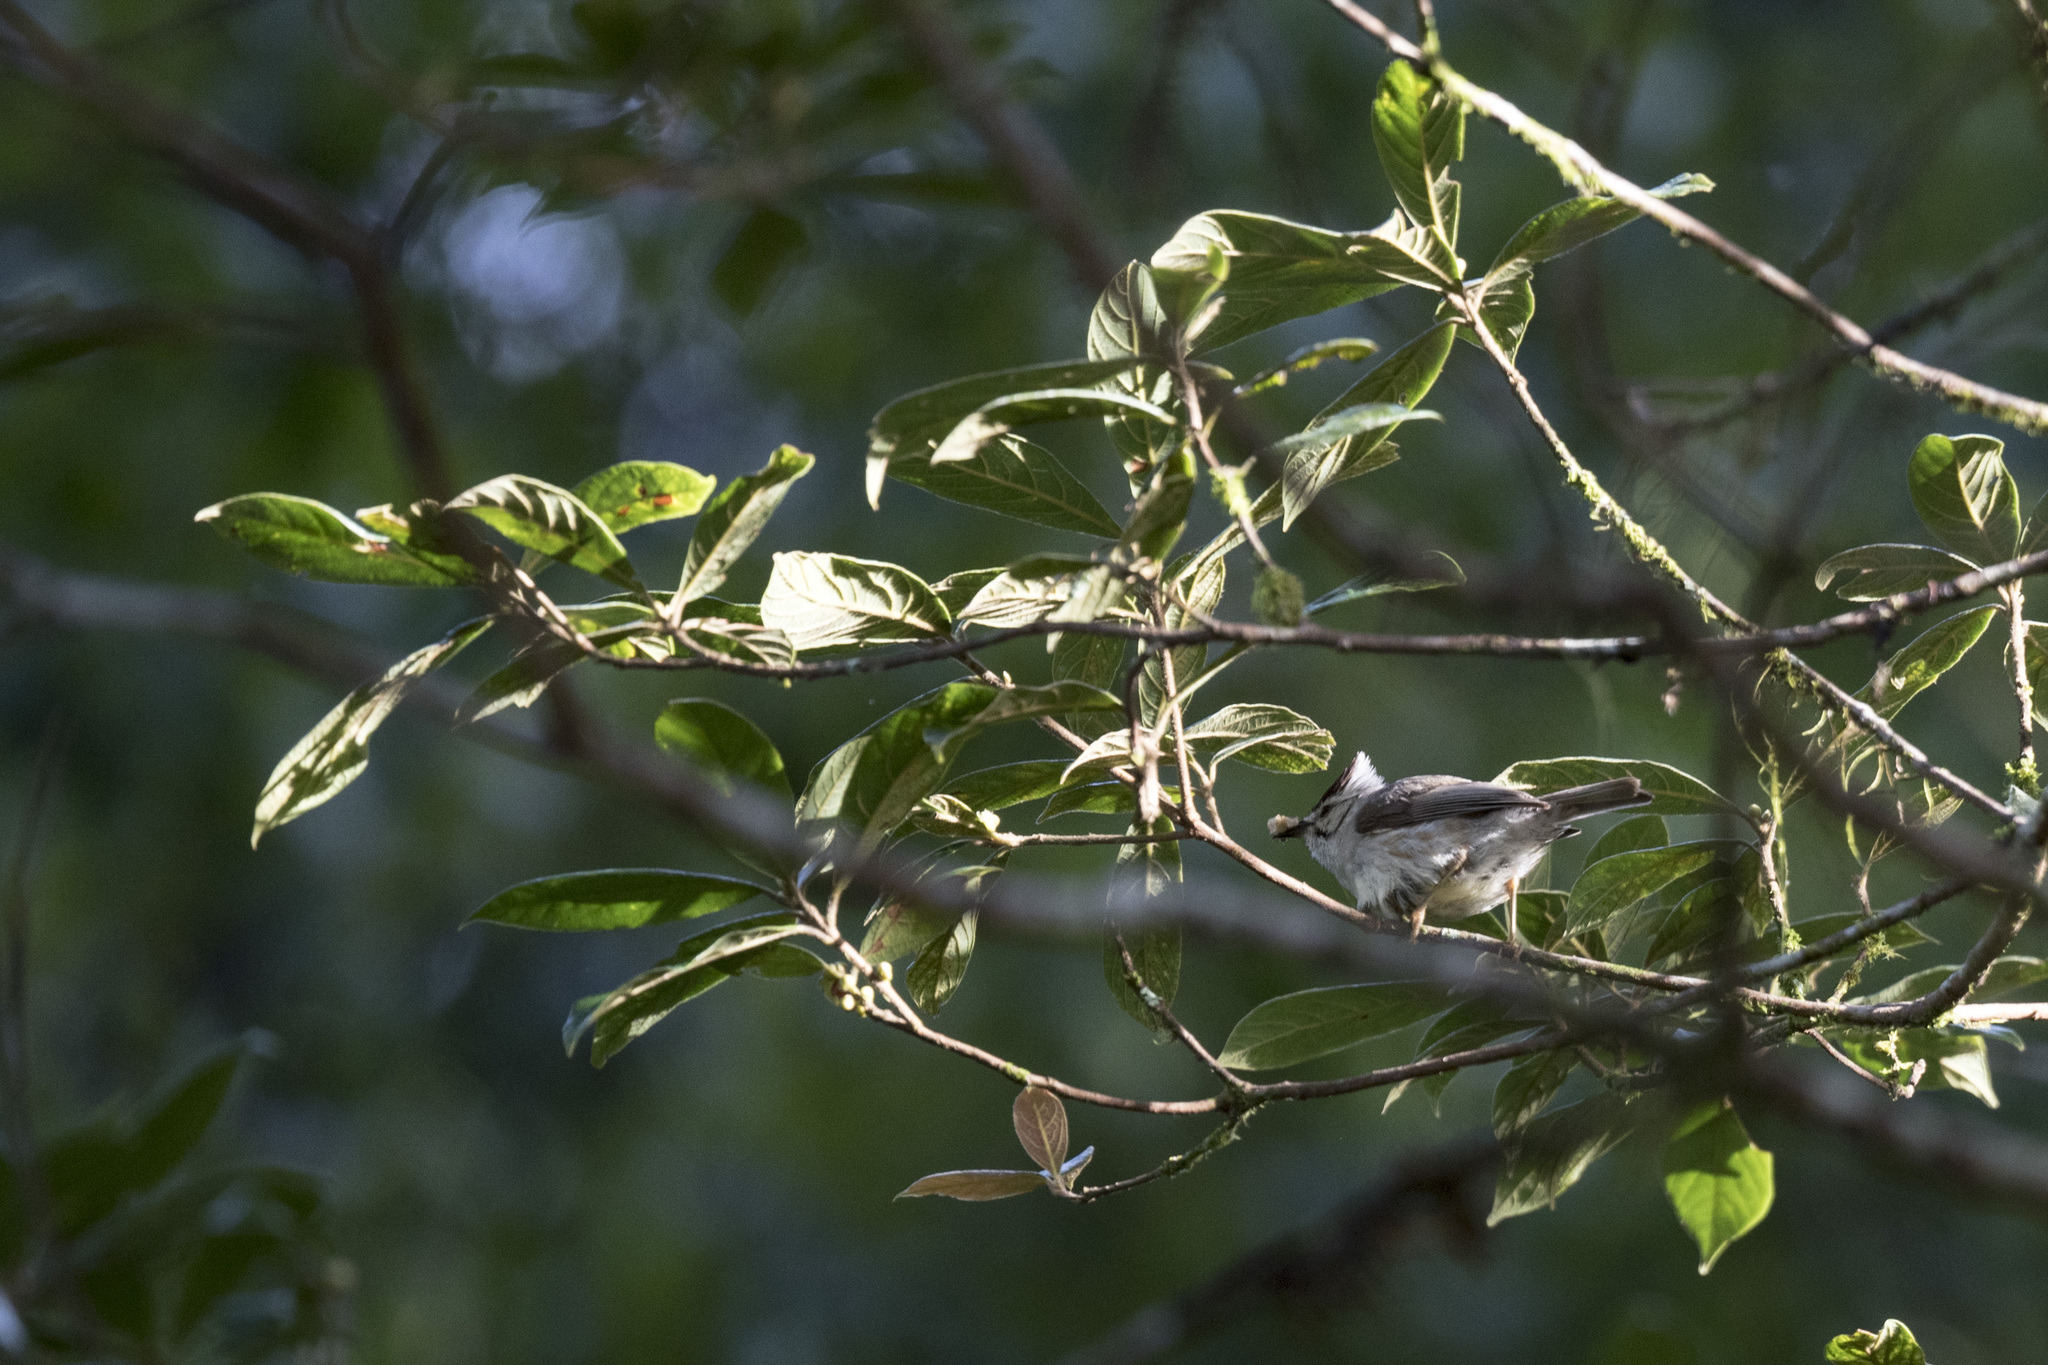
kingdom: Animalia
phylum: Chordata
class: Aves
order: Passeriformes
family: Zosteropidae
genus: Yuhina
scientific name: Yuhina brunneiceps
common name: Taiwan yuhina
